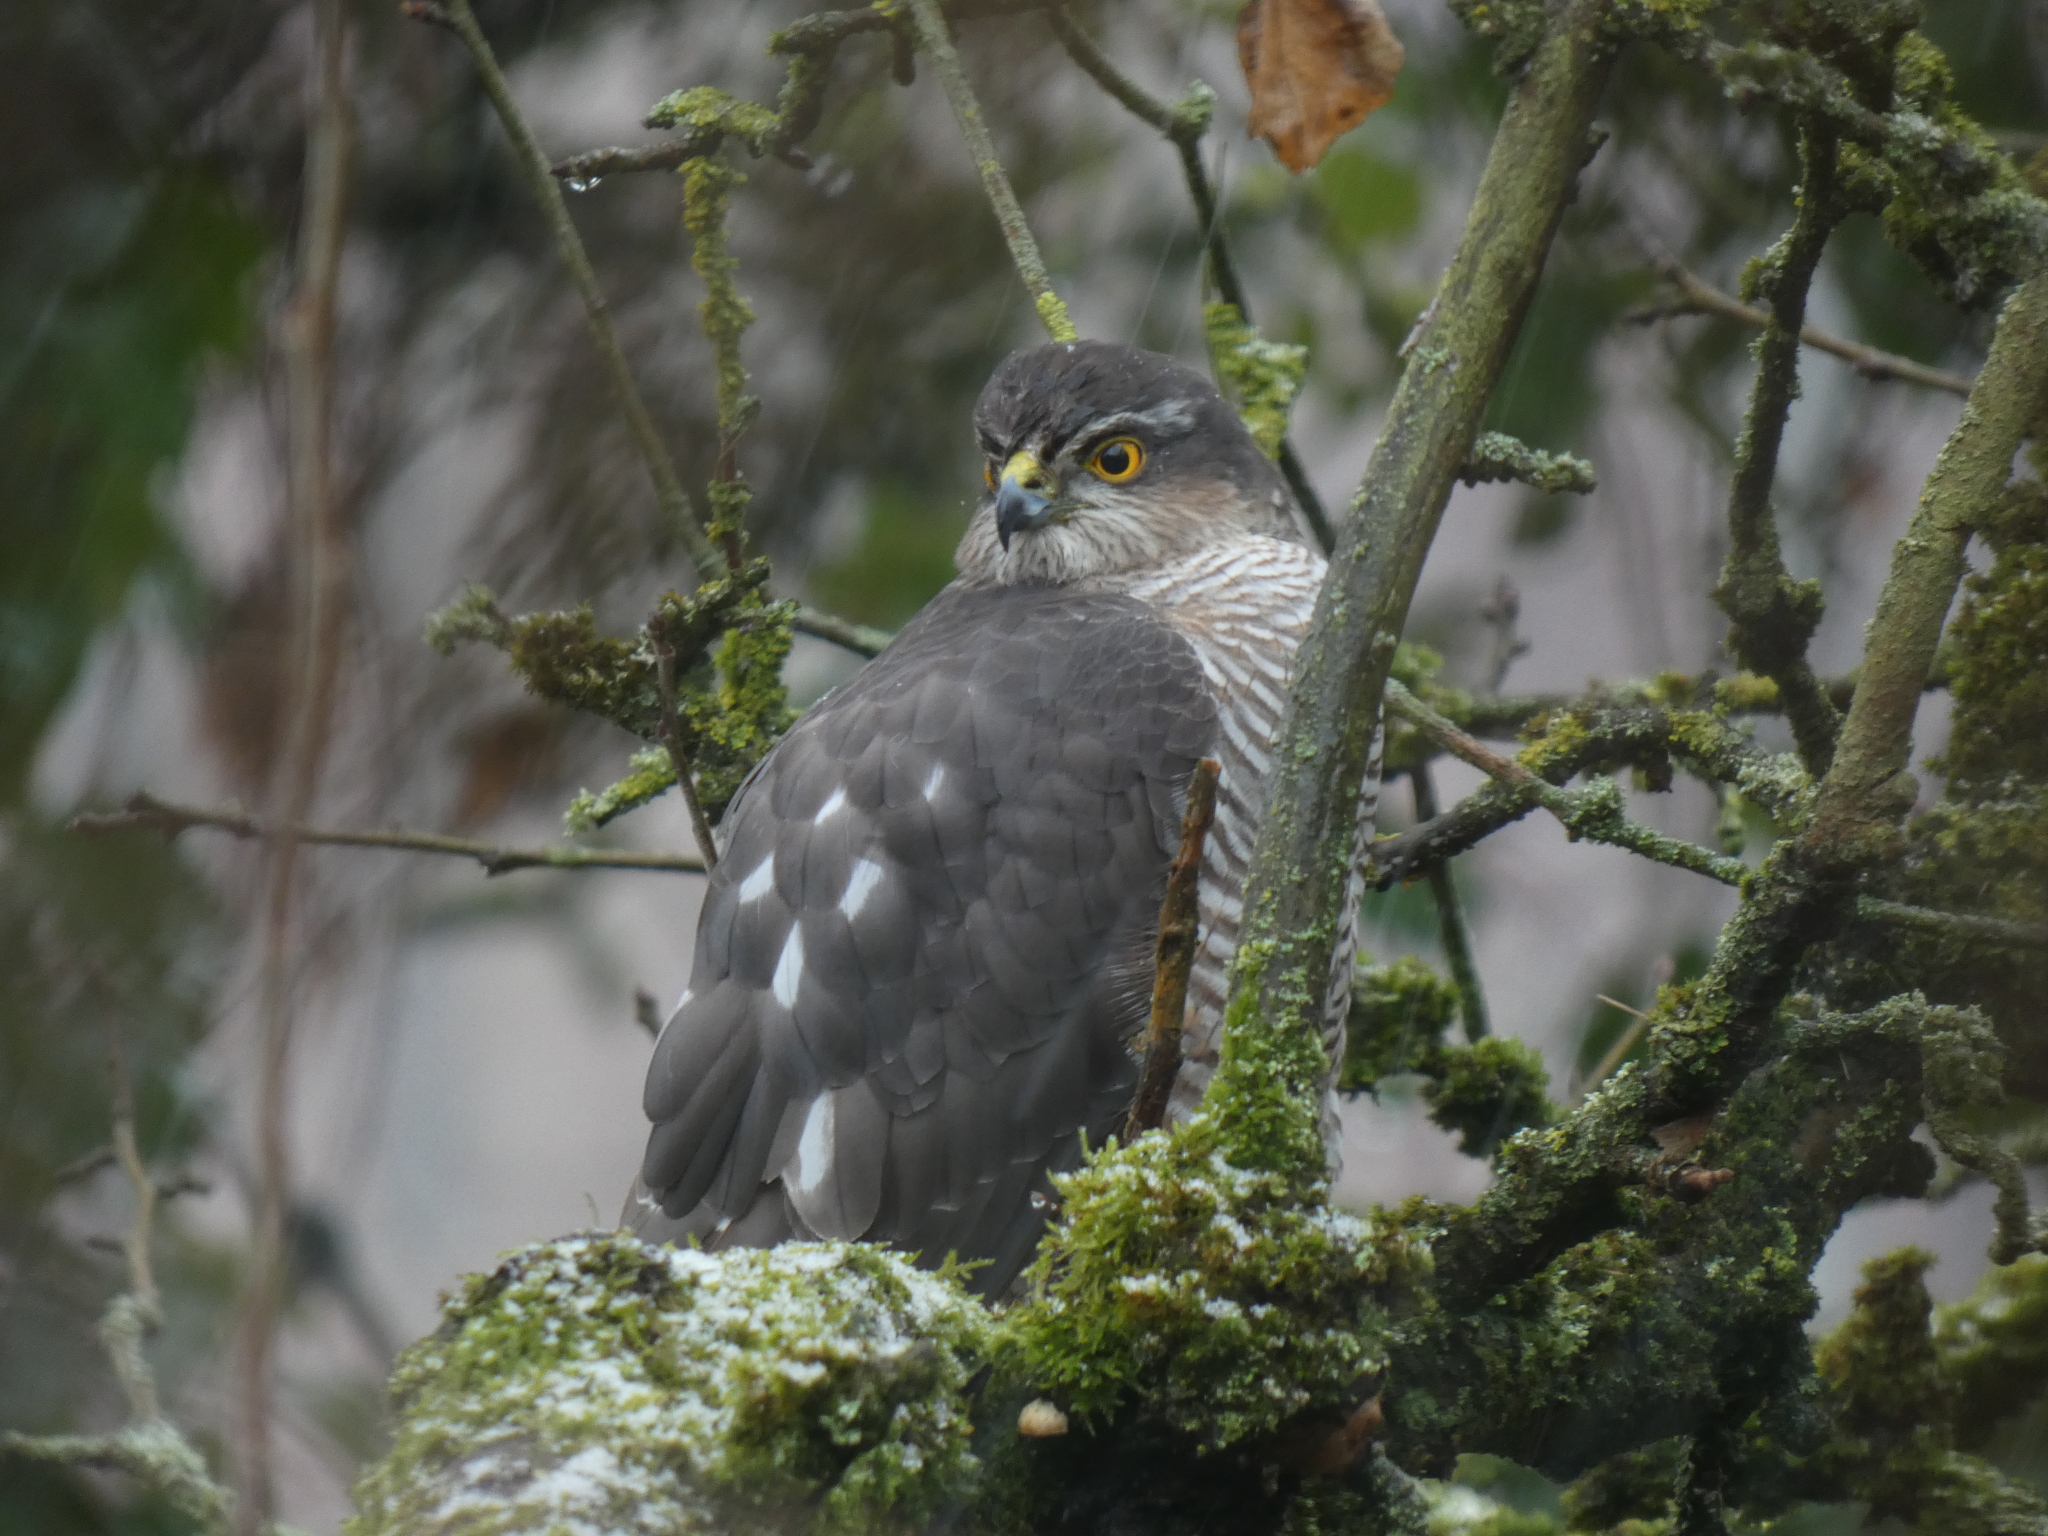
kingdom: Animalia
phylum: Chordata
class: Aves
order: Accipitriformes
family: Accipitridae
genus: Accipiter
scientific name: Accipiter nisus
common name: Eurasian sparrowhawk
